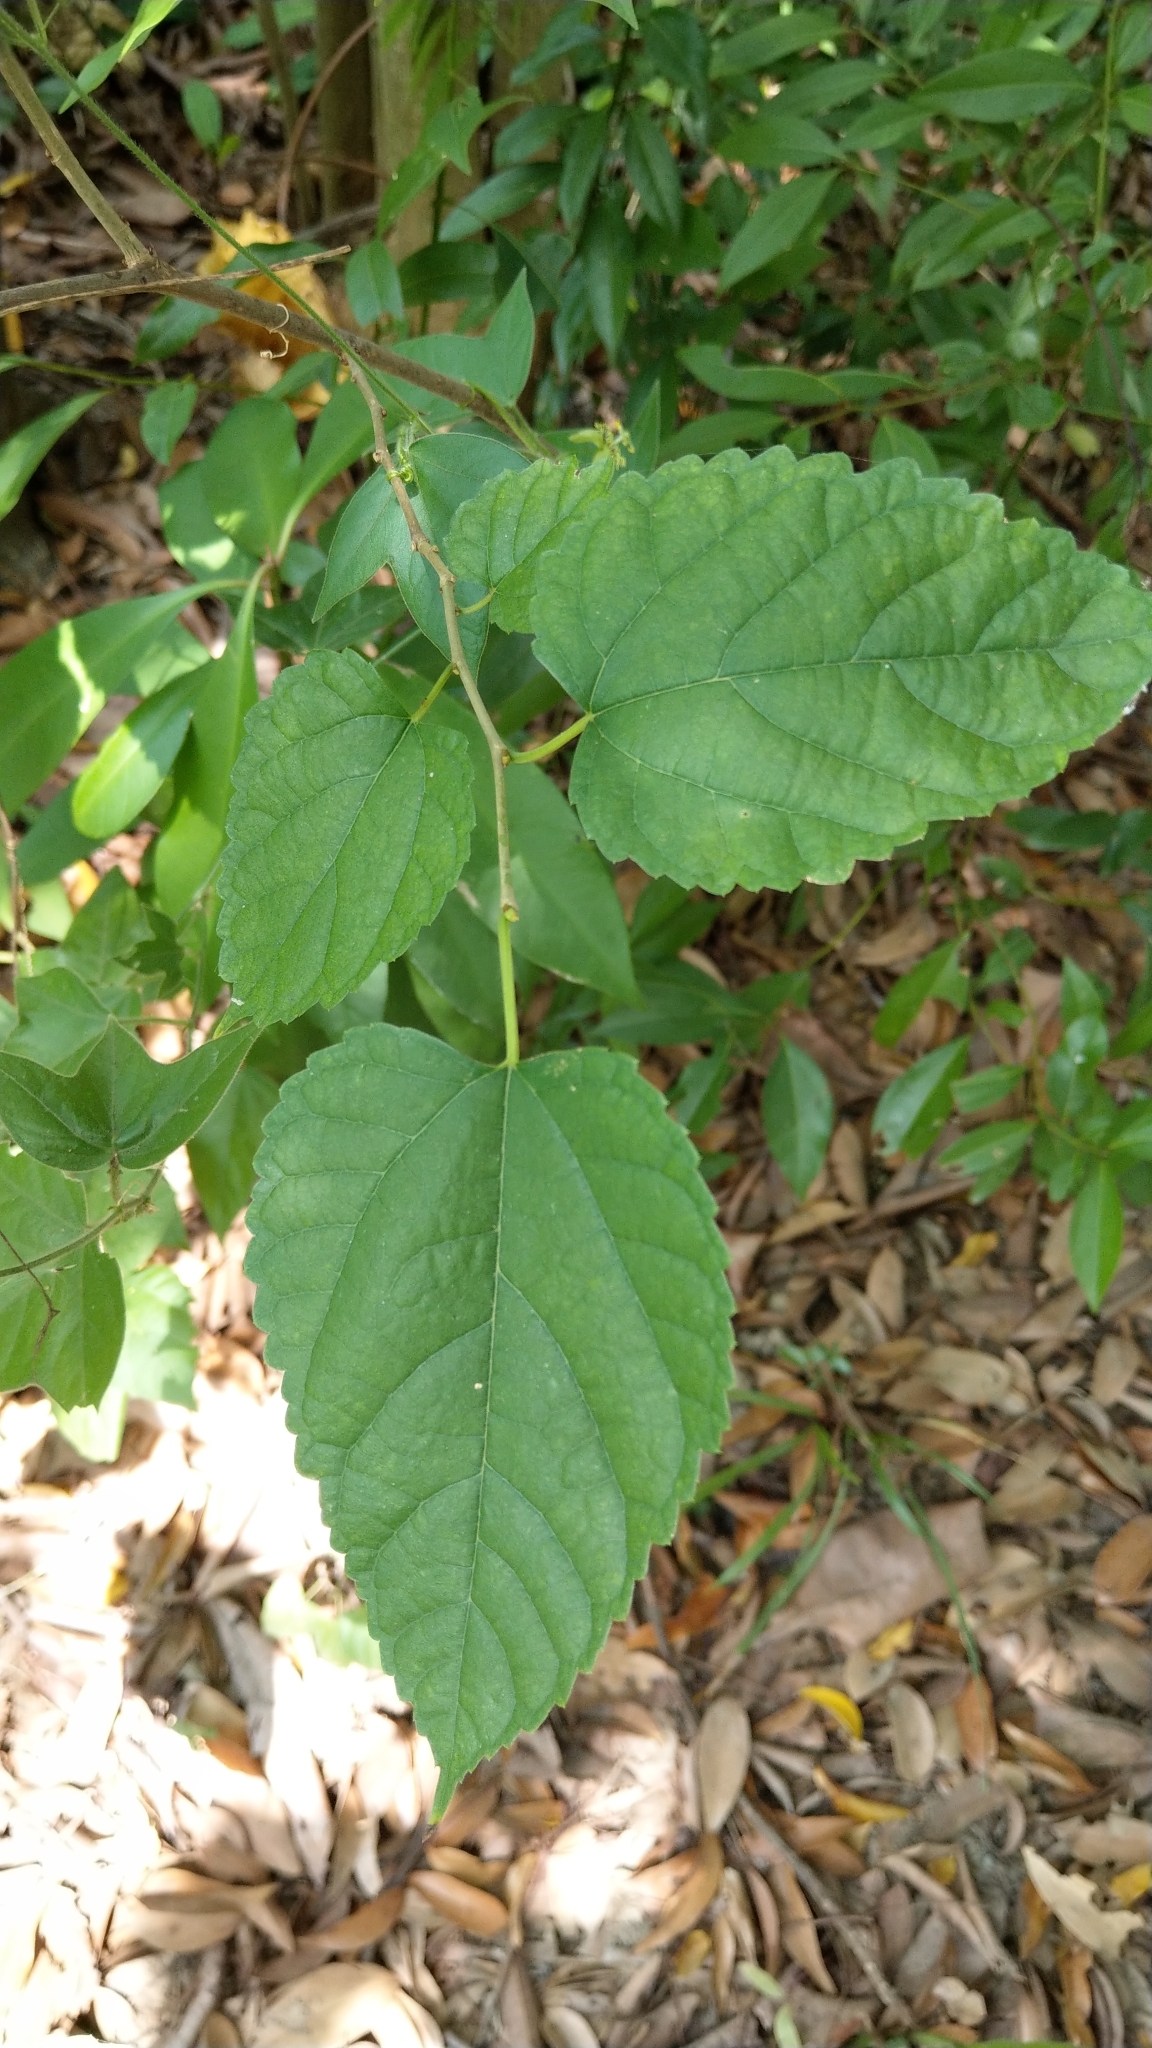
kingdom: Plantae
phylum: Tracheophyta
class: Magnoliopsida
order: Rosales
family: Moraceae
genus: Morus
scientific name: Morus indica
